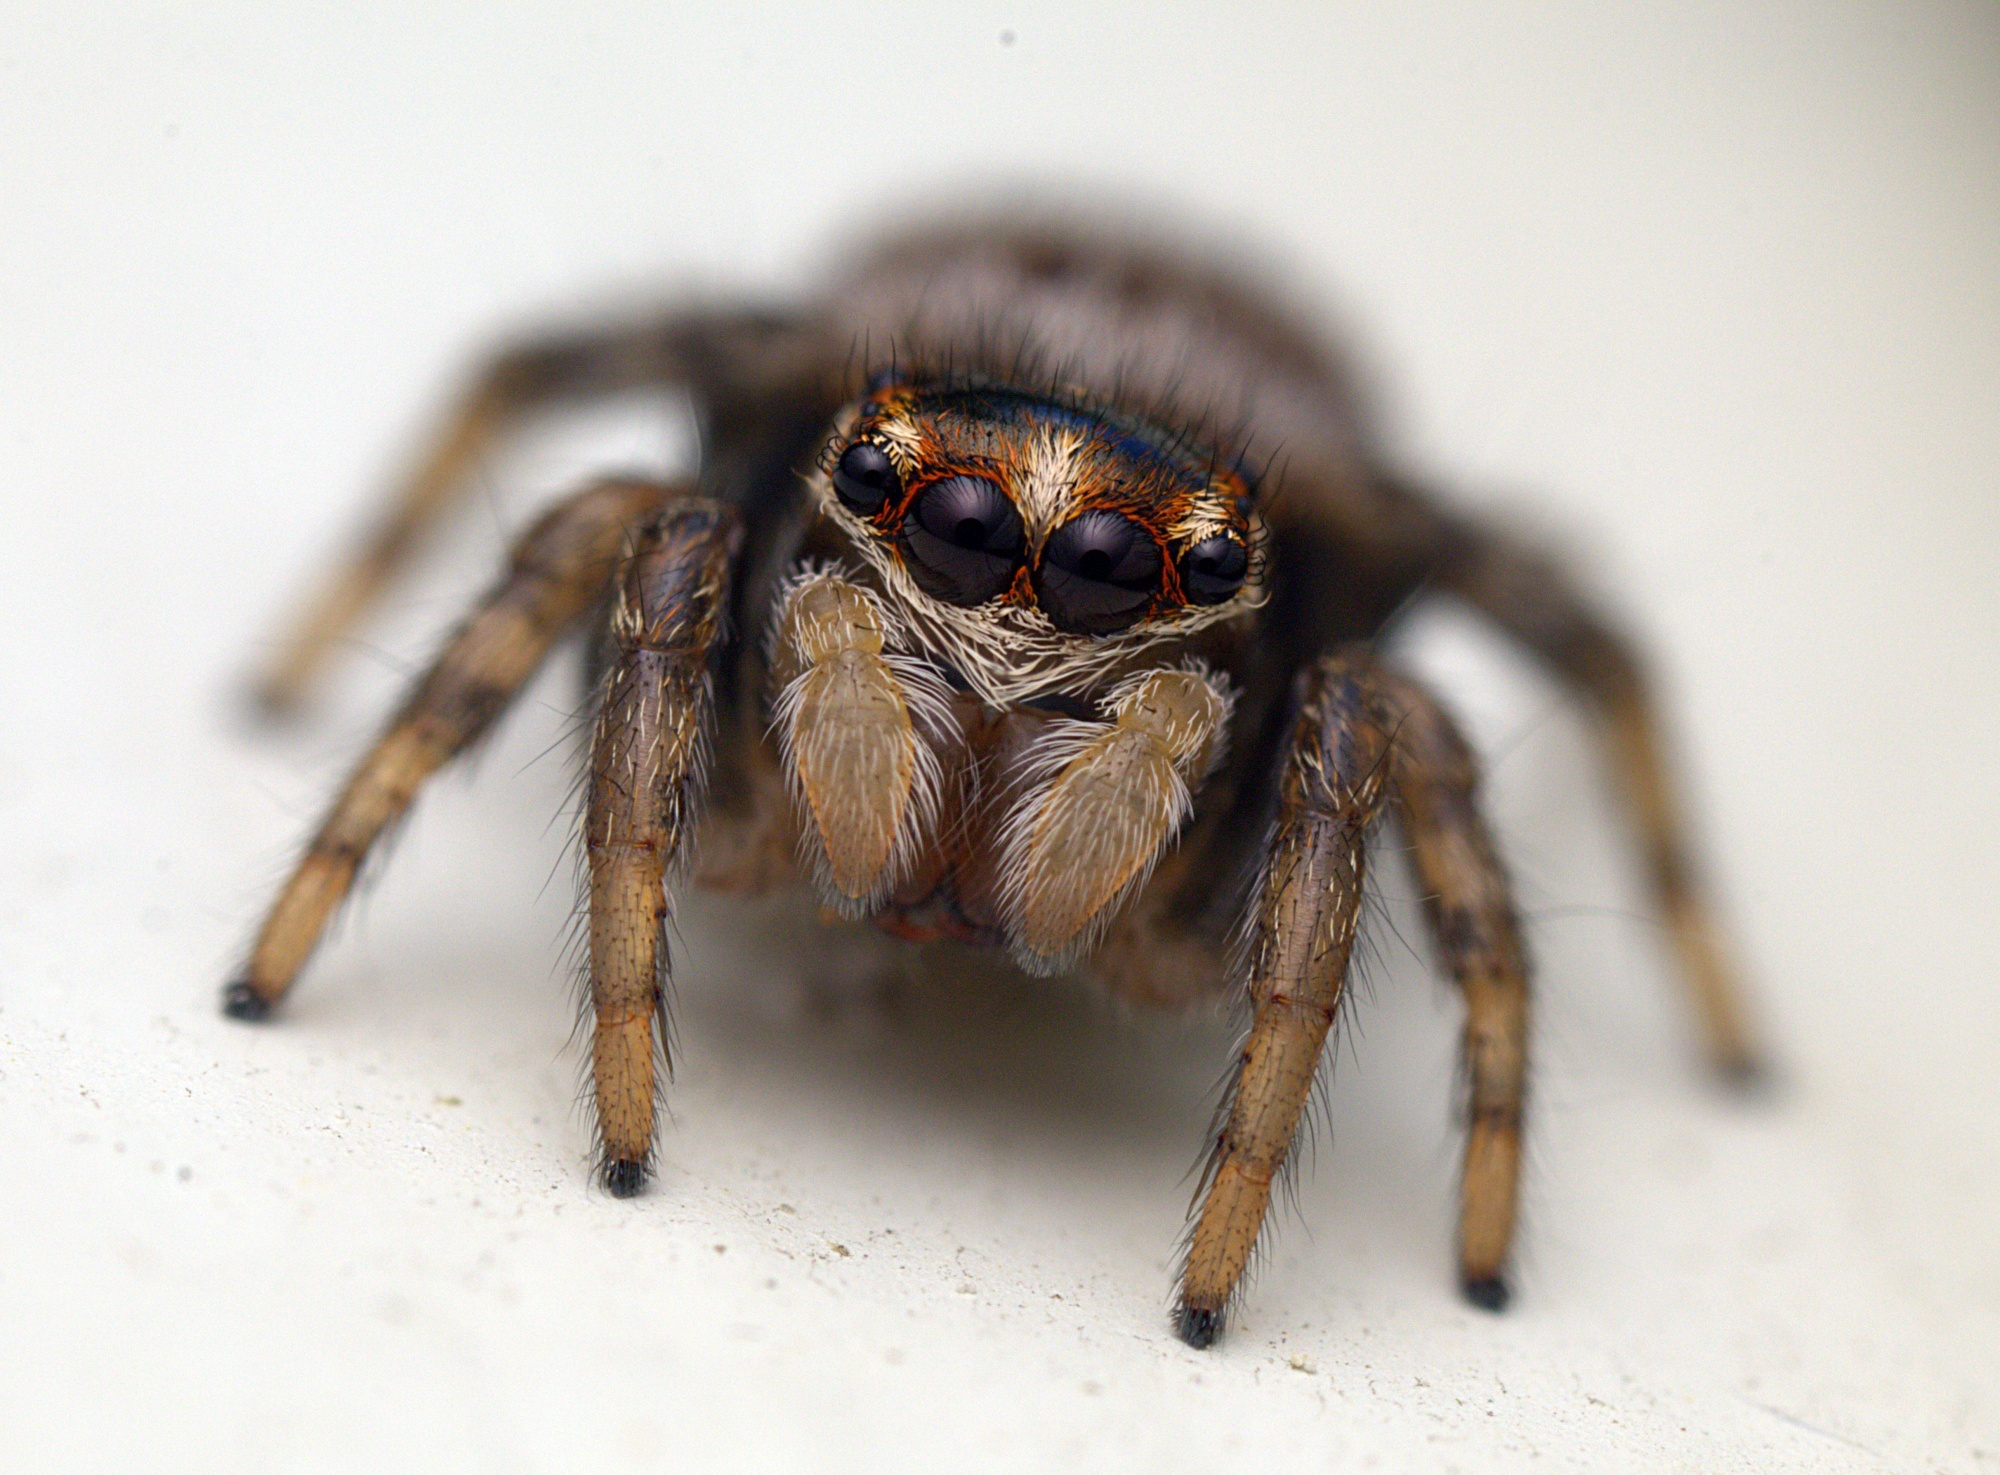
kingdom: Animalia
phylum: Arthropoda
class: Arachnida
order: Araneae
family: Salticidae
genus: Maratus
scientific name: Maratus griseus
